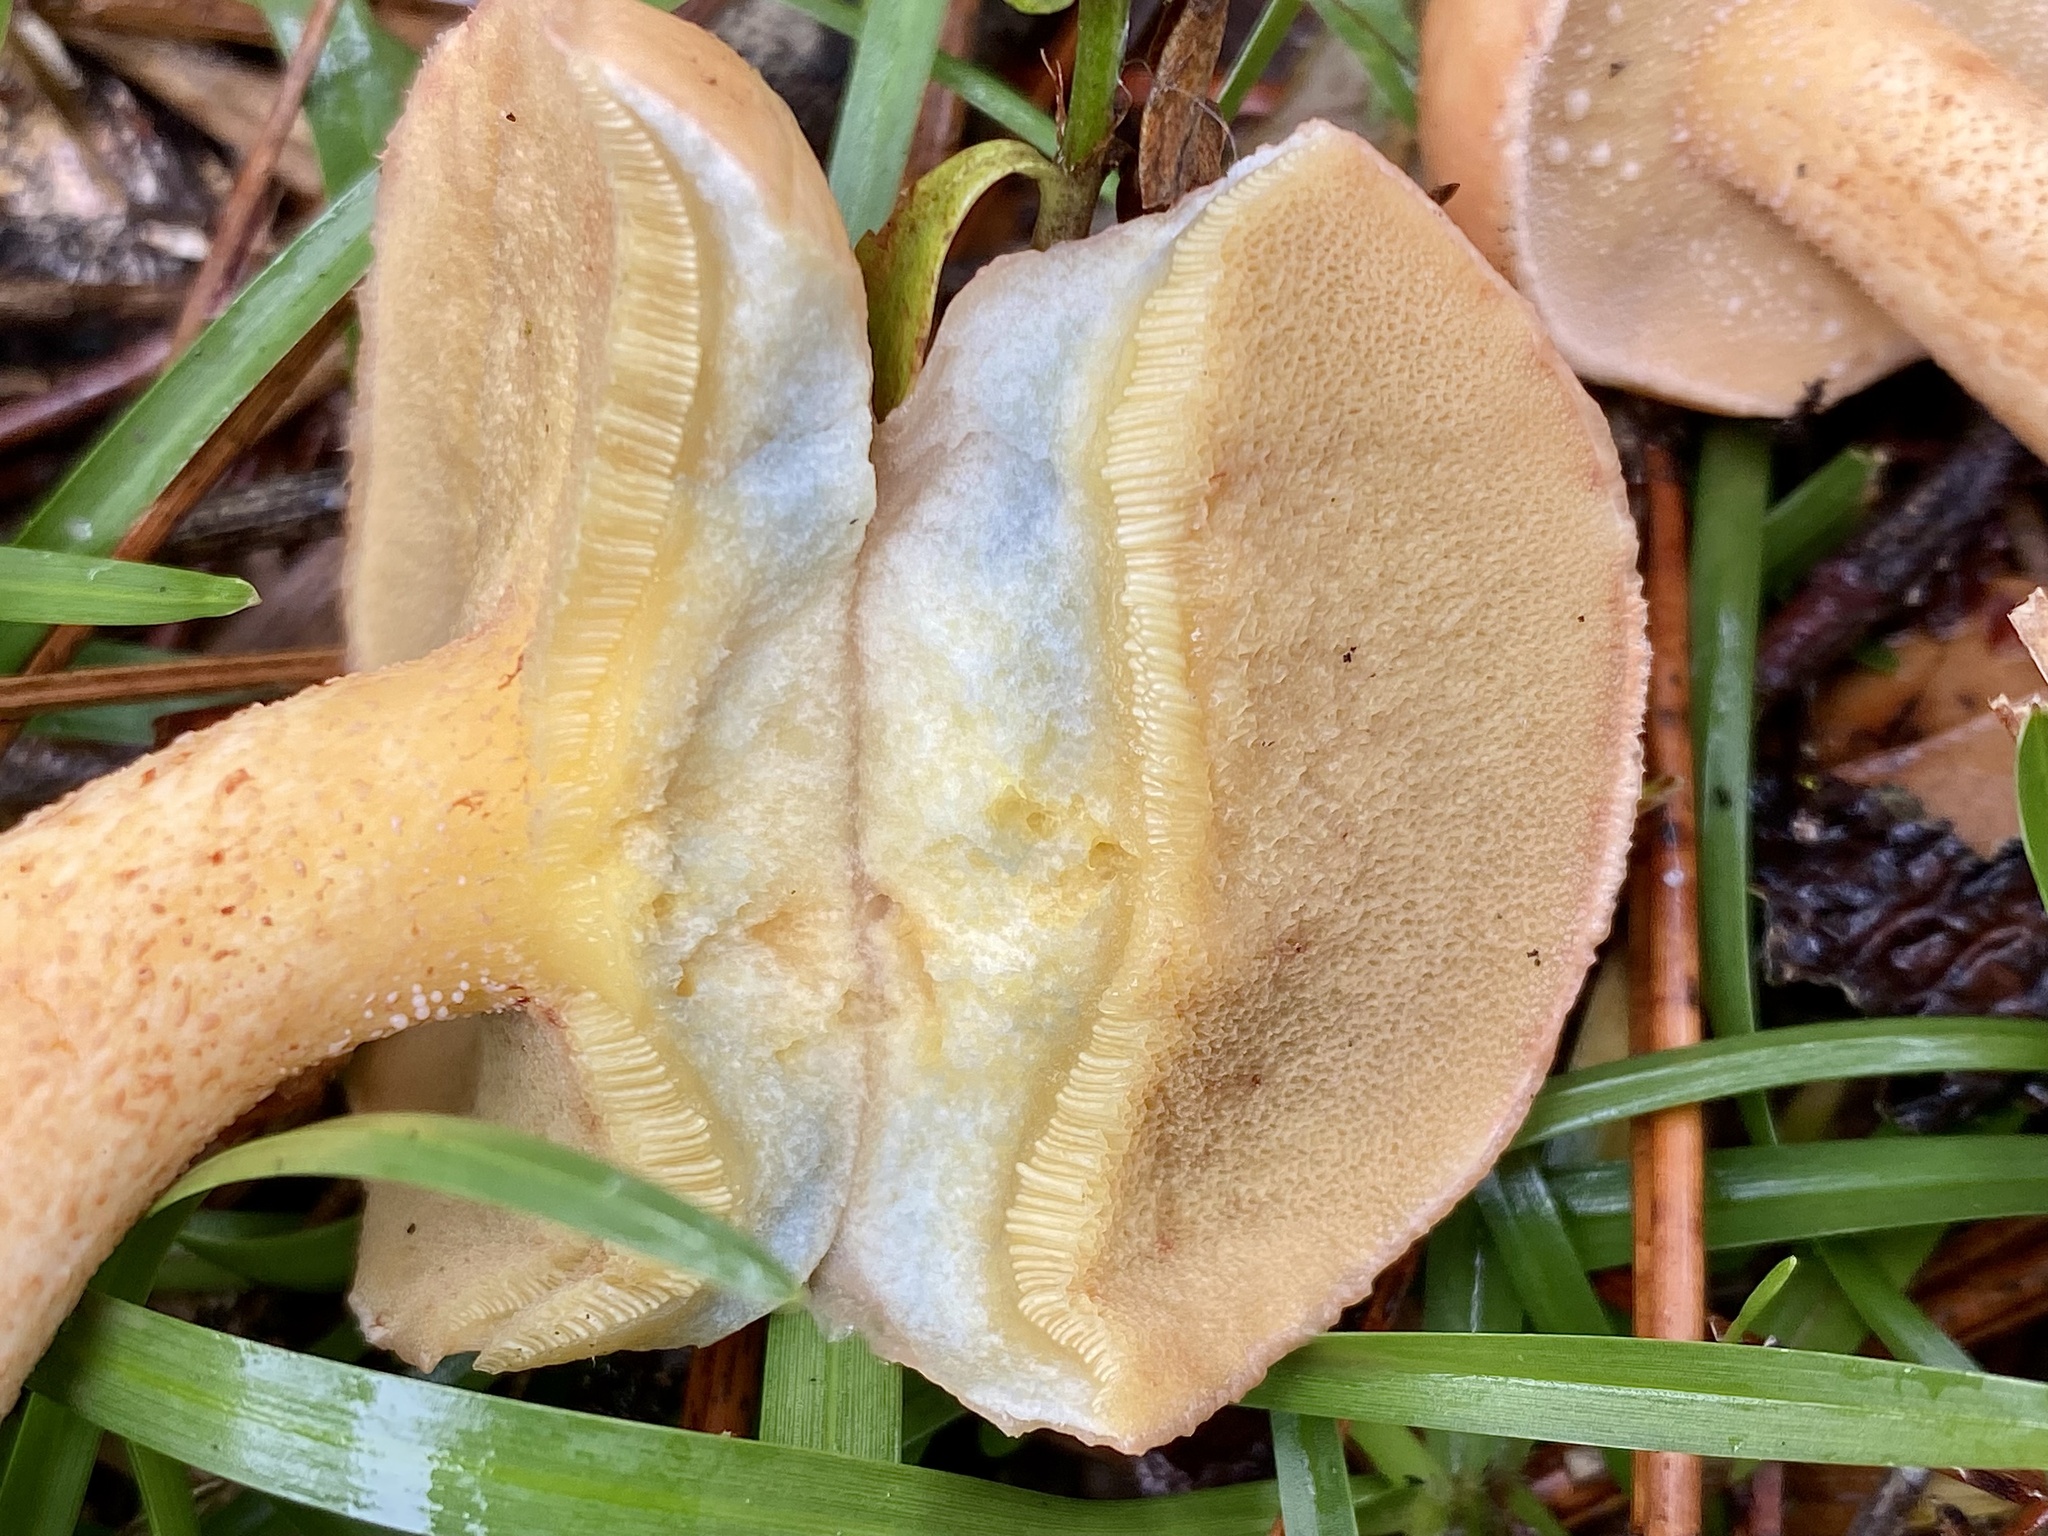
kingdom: Fungi
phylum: Basidiomycota
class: Agaricomycetes
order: Boletales
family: Suillaceae
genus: Suillus
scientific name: Suillus hirtellus
